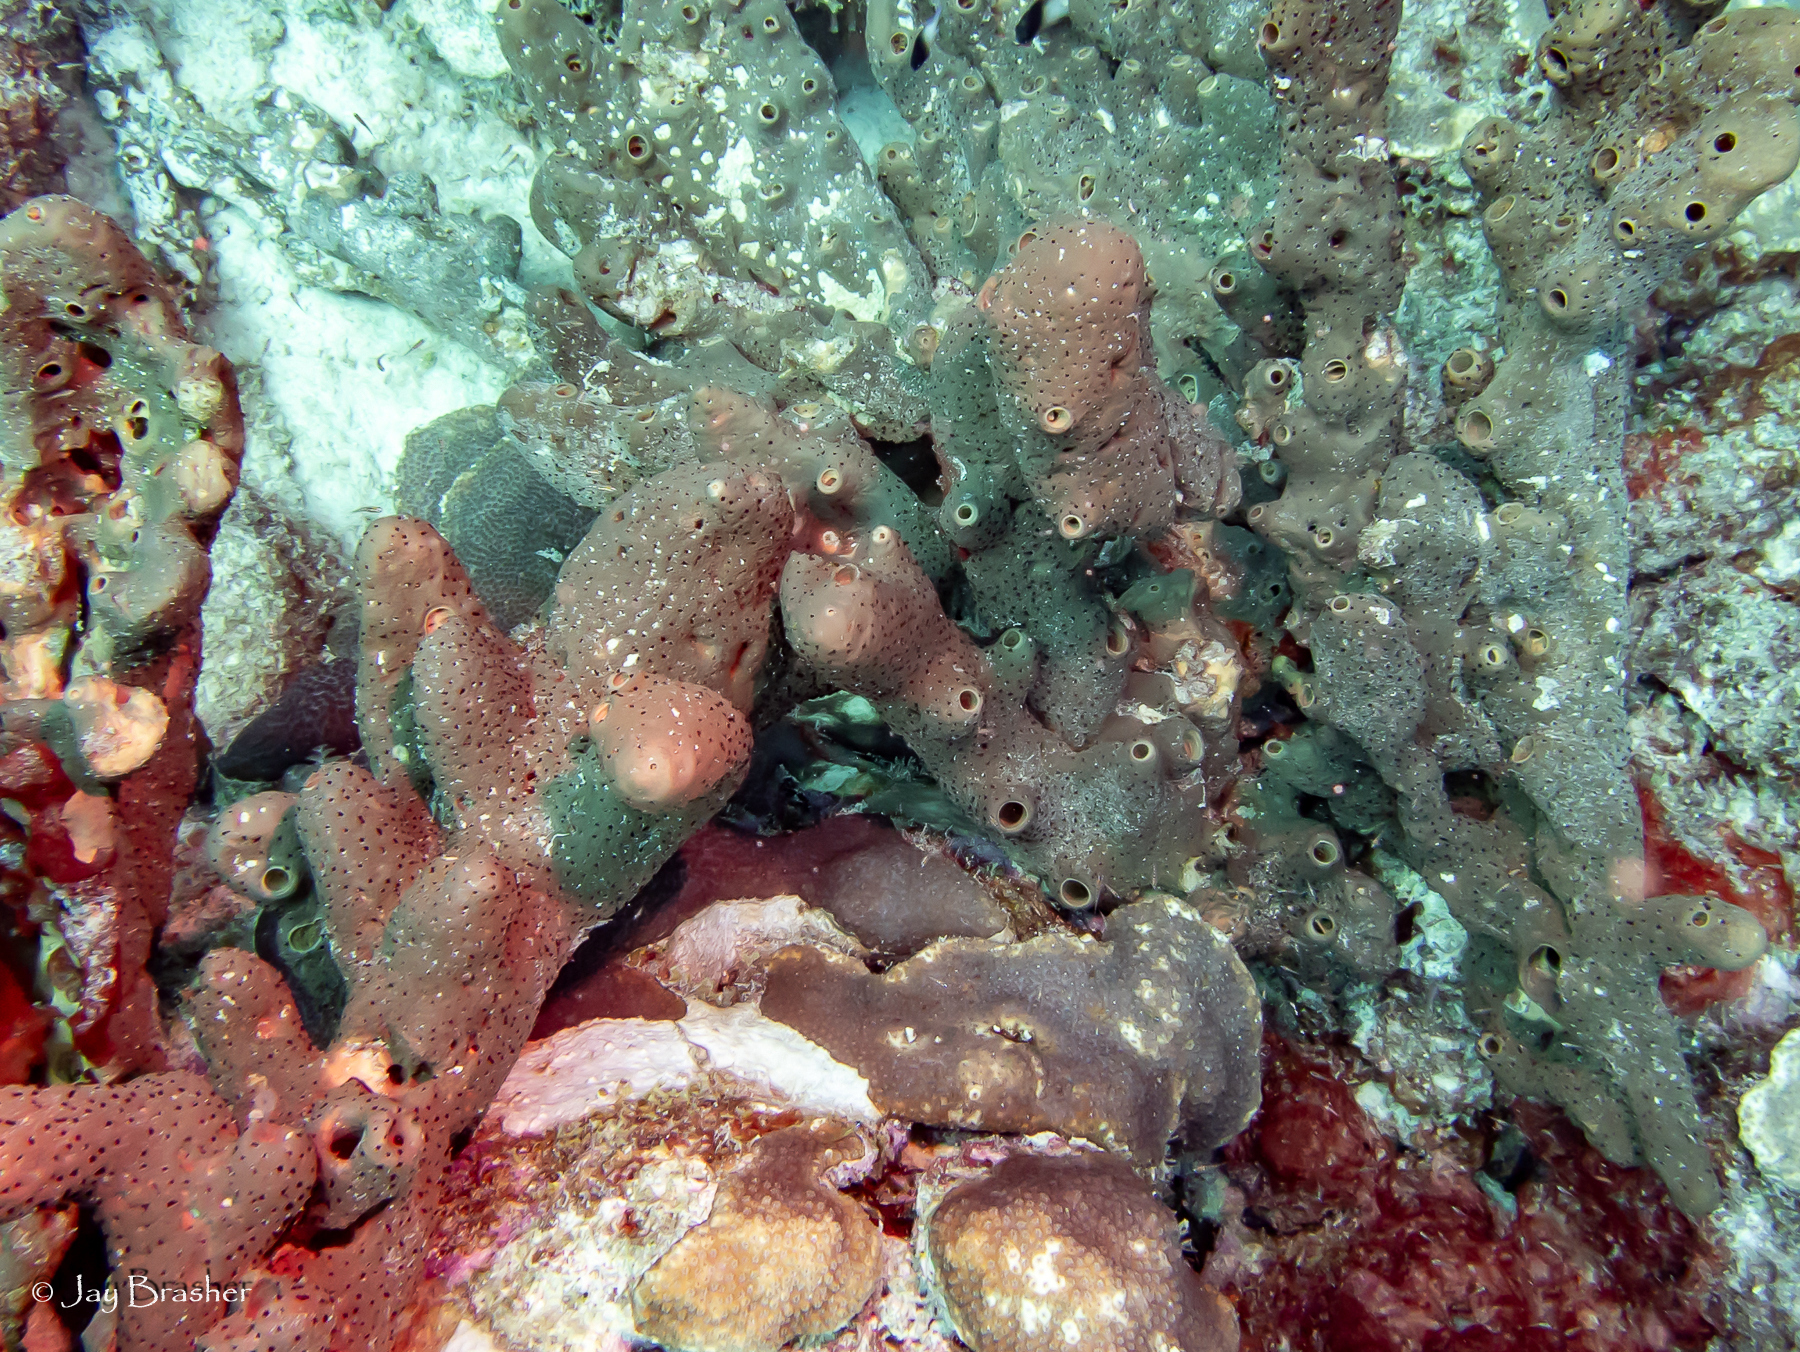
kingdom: Animalia
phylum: Porifera
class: Demospongiae
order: Agelasida
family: Agelasidae
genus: Agelas
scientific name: Agelas conifera
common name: Brown tube sponge
